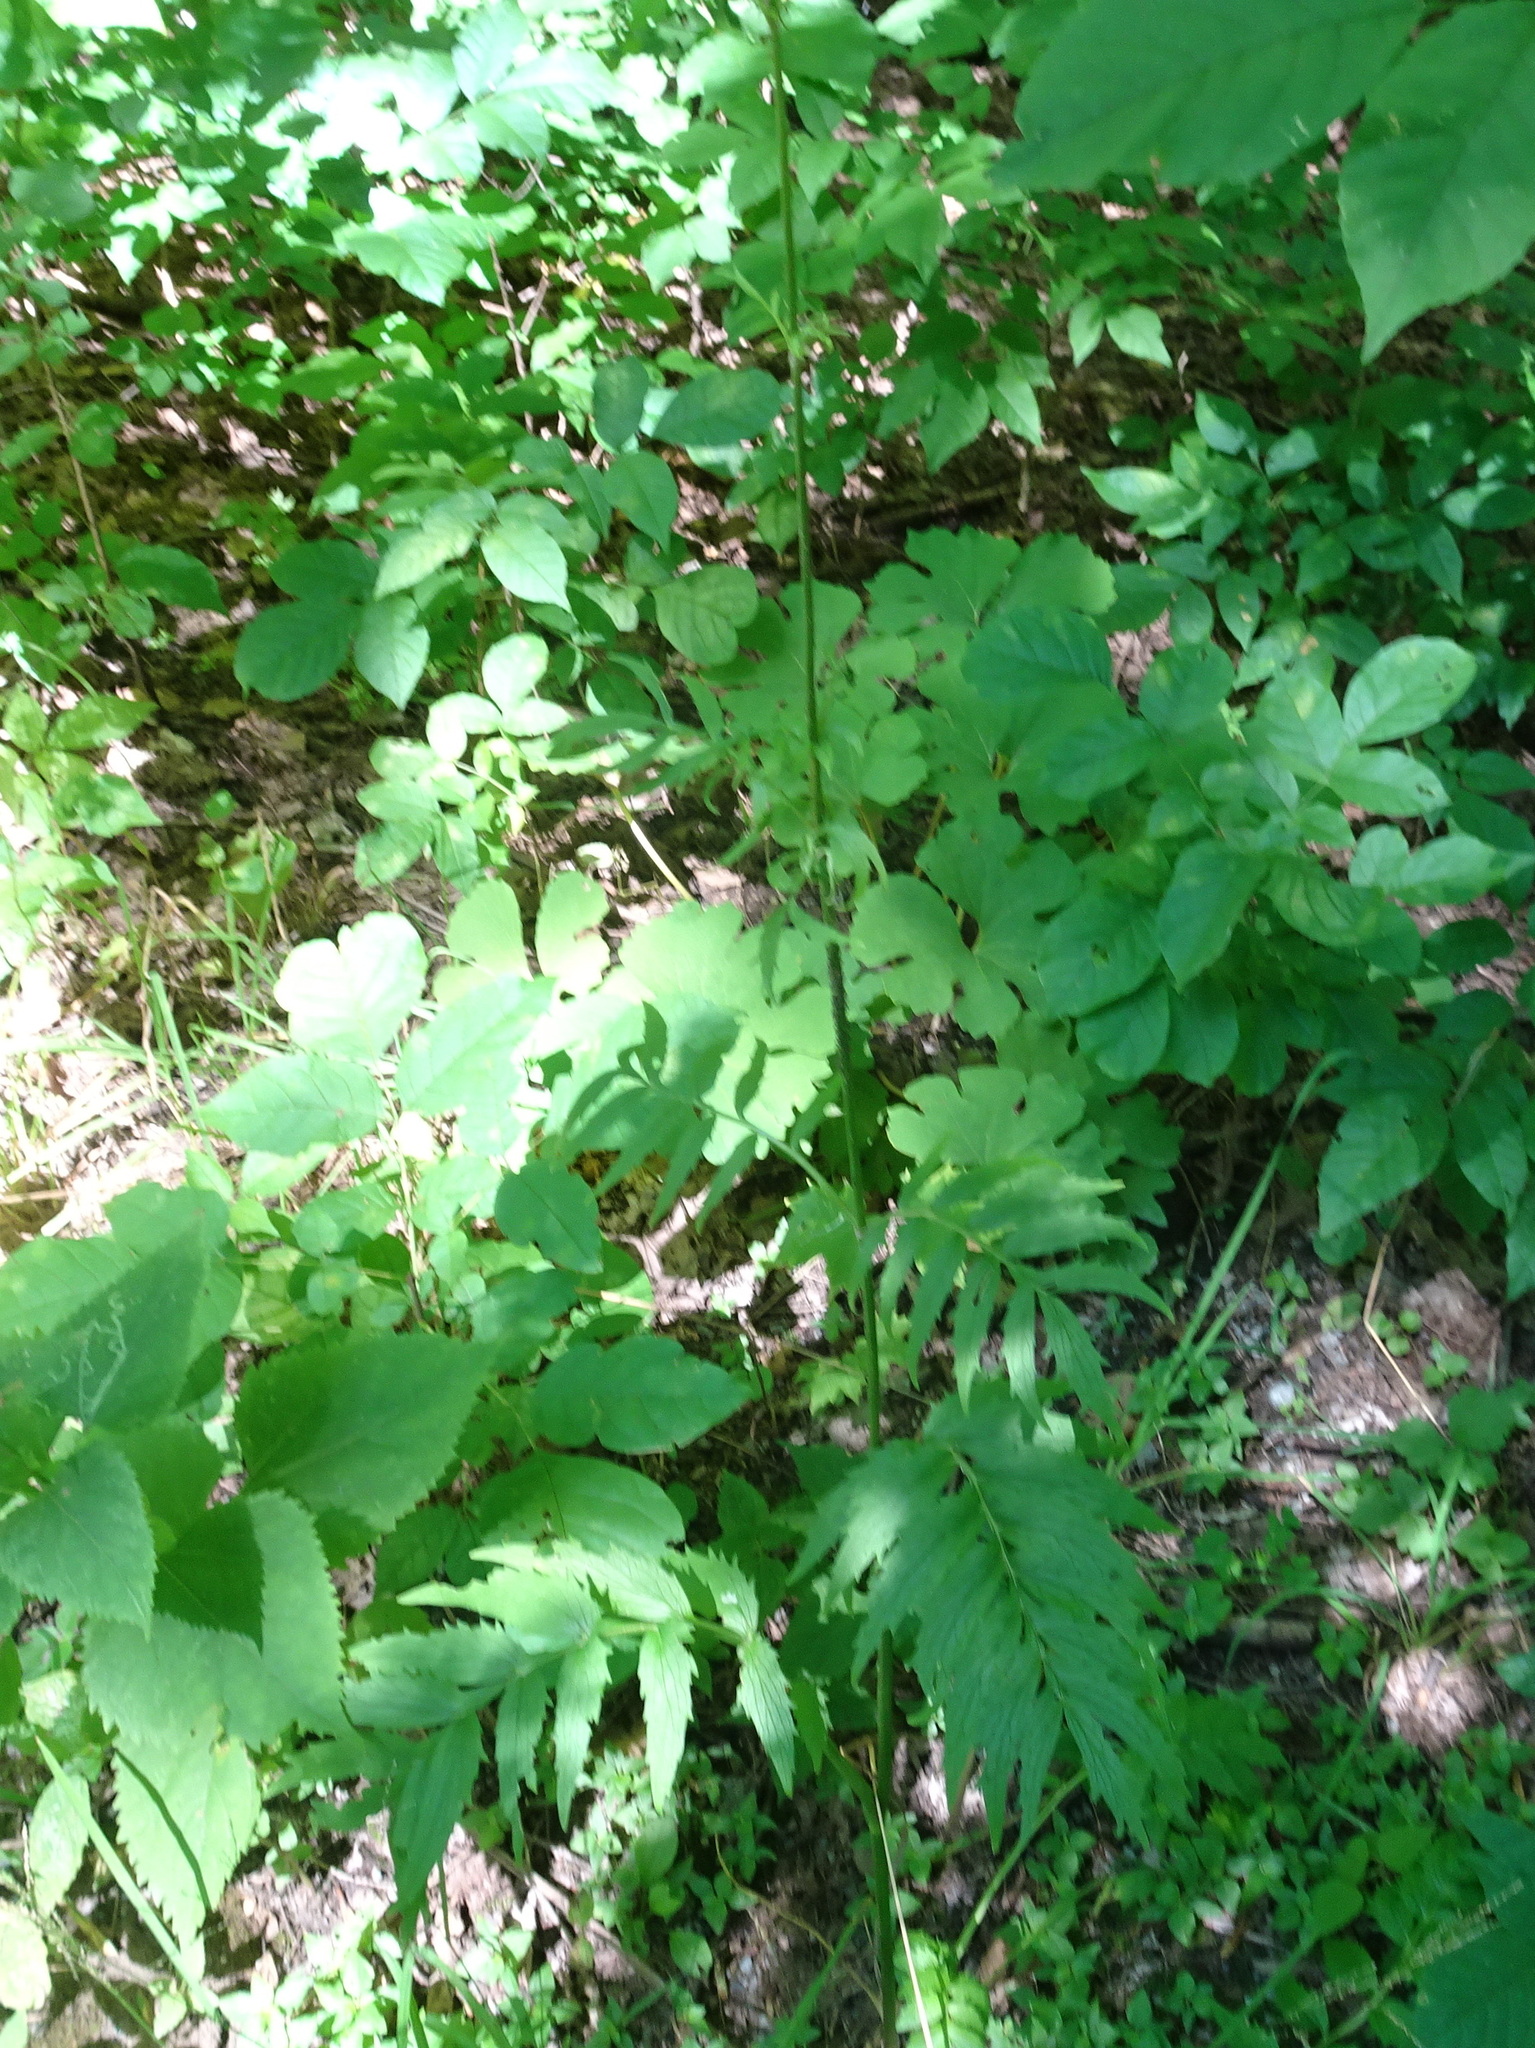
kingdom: Plantae
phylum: Tracheophyta
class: Magnoliopsida
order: Dipsacales
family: Caprifoliaceae
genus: Valeriana
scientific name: Valeriana officinalis
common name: Common valerian
